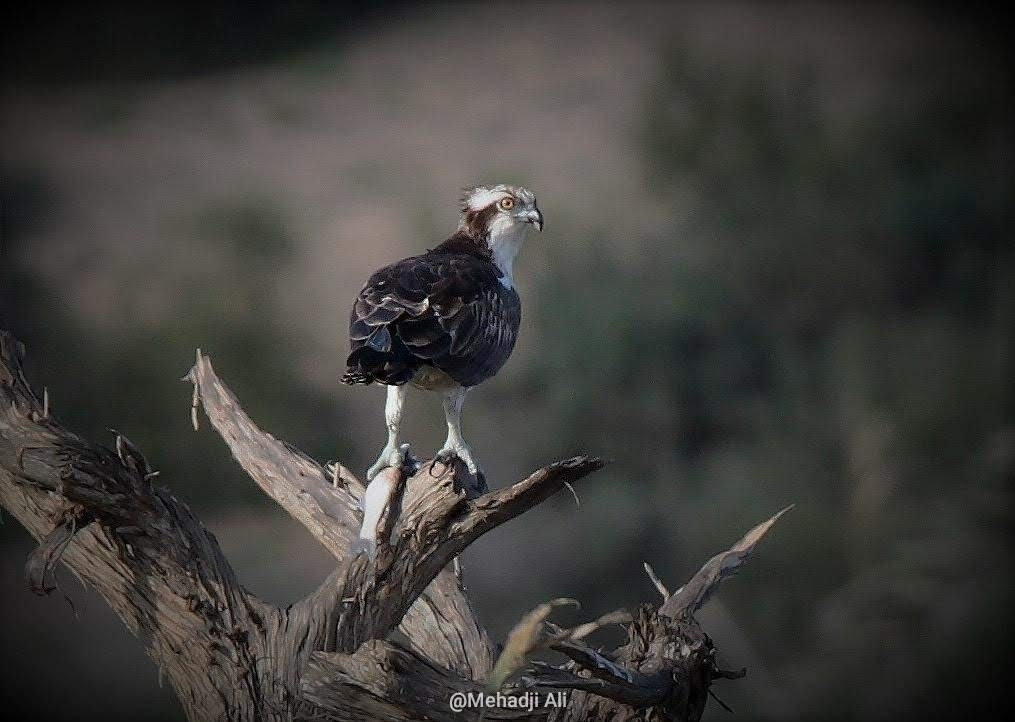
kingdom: Animalia
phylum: Chordata
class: Aves
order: Accipitriformes
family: Pandionidae
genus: Pandion
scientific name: Pandion haliaetus
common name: Osprey
